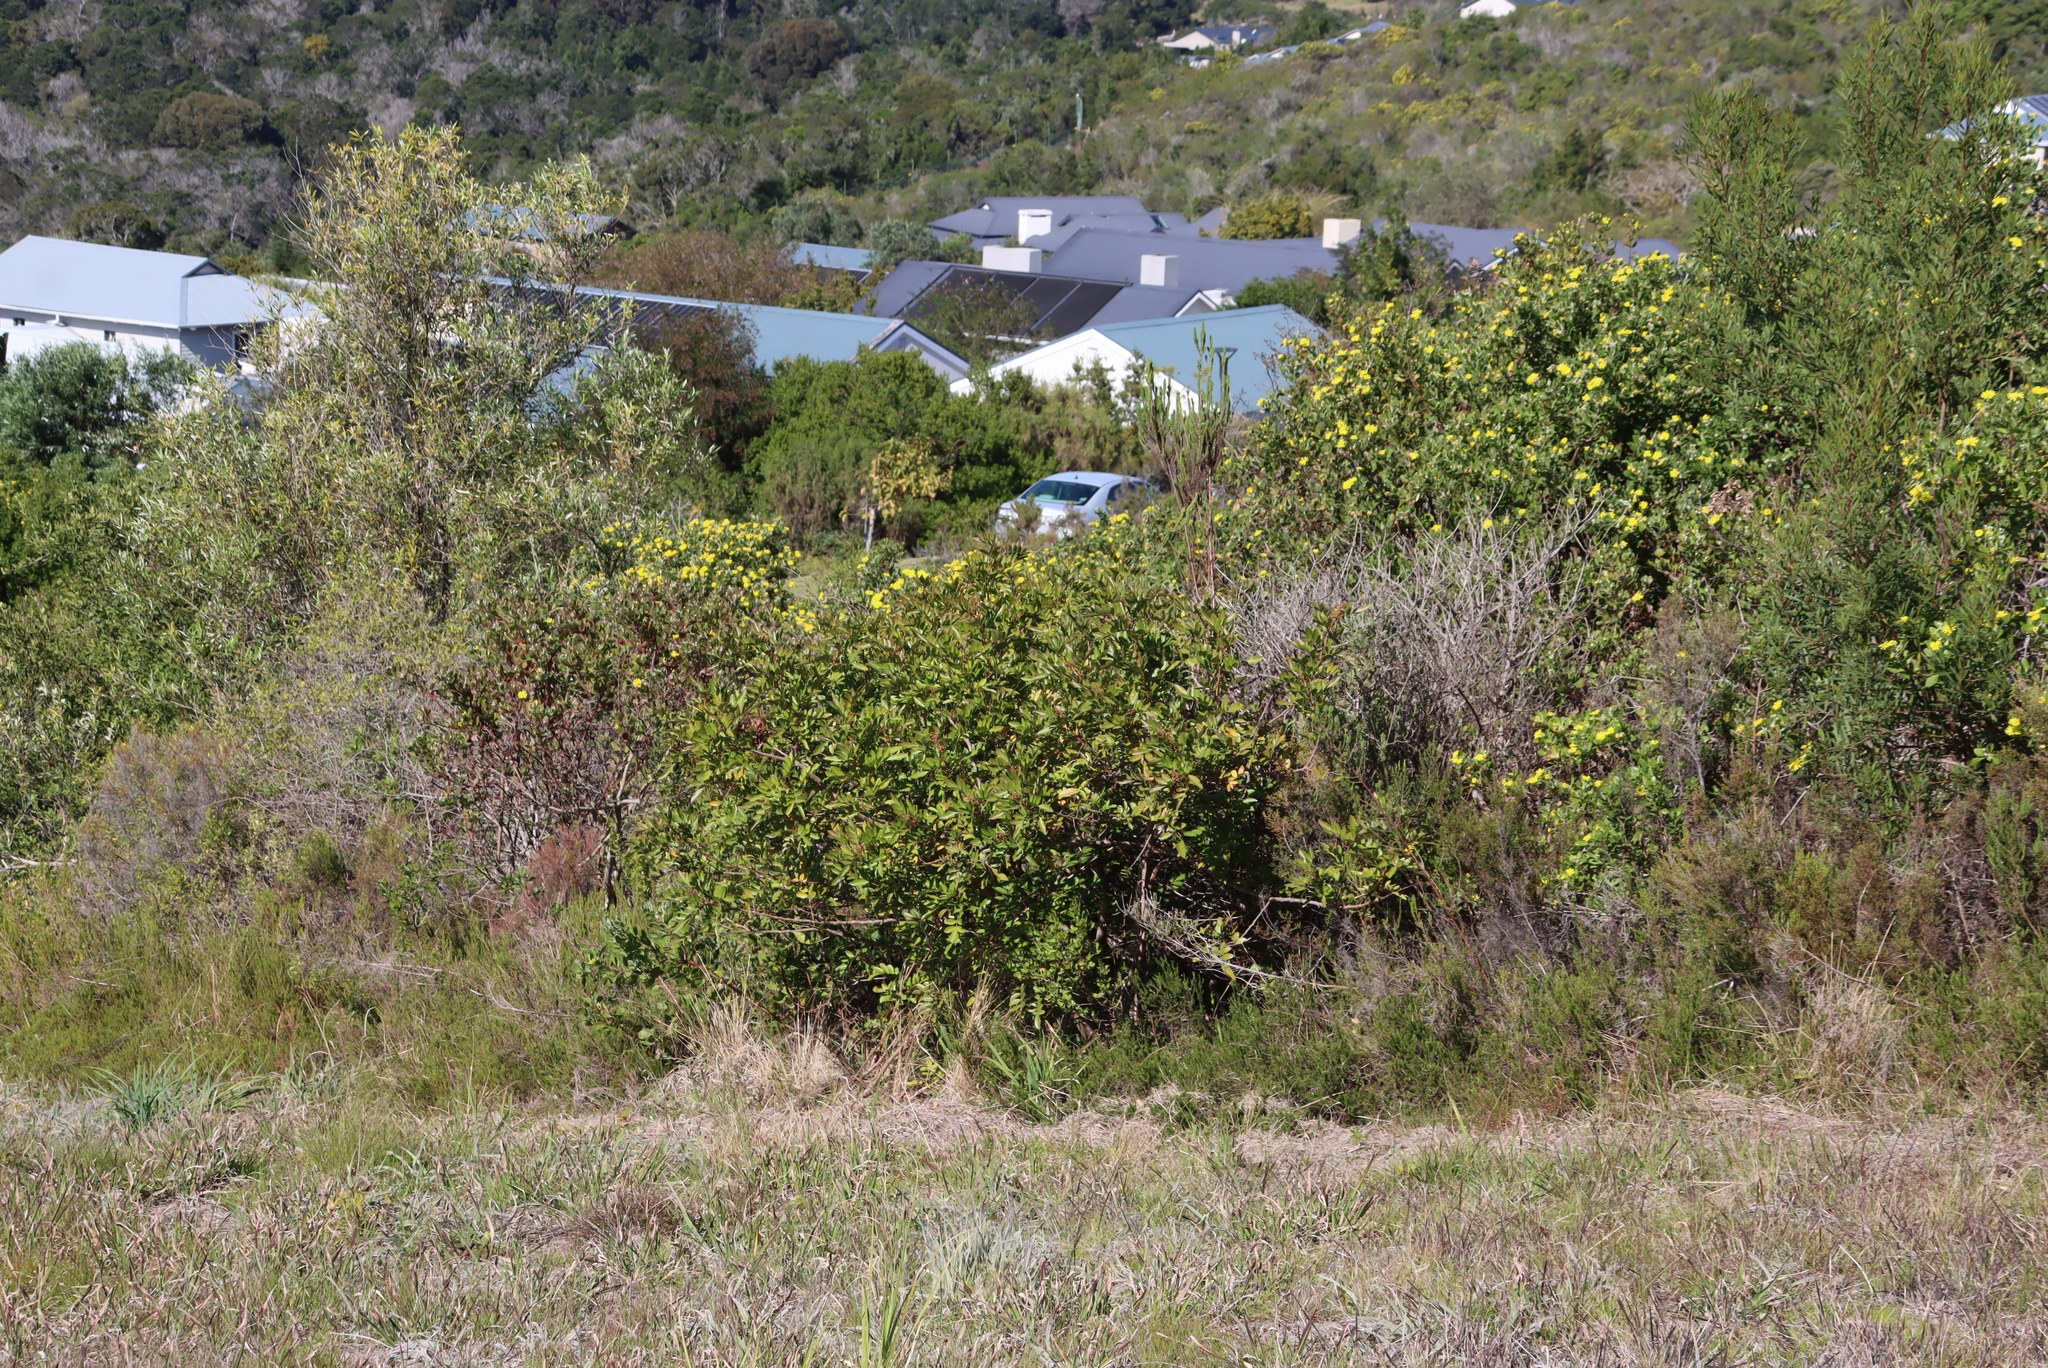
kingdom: Plantae
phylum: Tracheophyta
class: Magnoliopsida
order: Sapindales
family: Anacardiaceae
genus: Schinus
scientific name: Schinus terebinthifolia
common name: Brazilian peppertree
